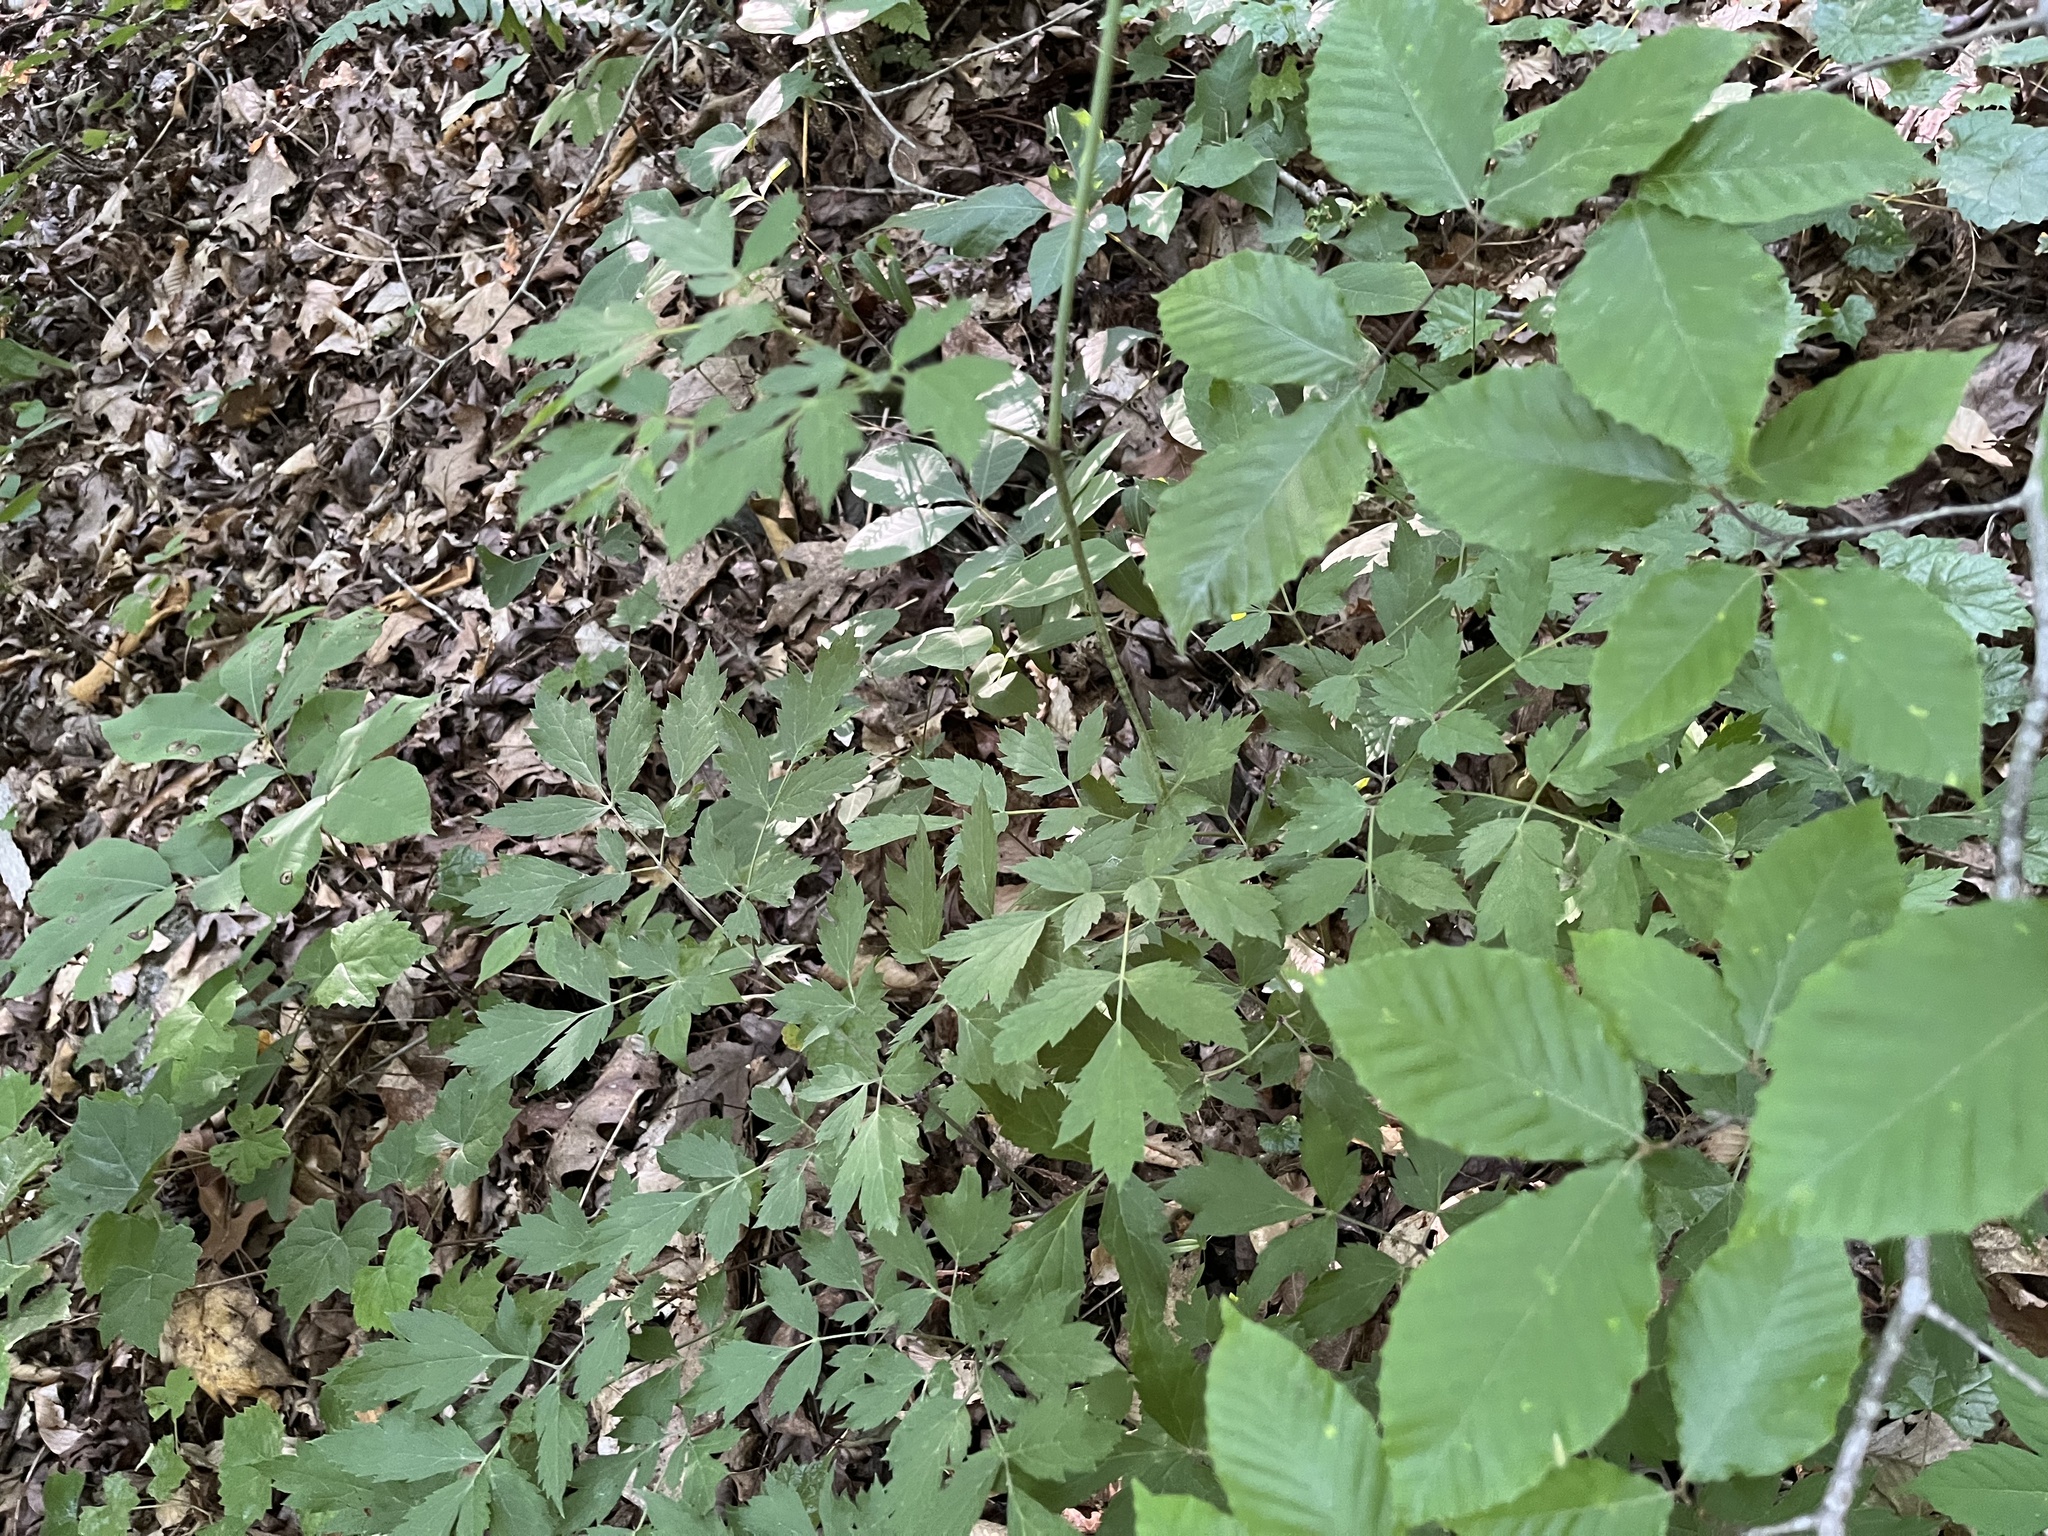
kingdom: Plantae
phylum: Tracheophyta
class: Magnoliopsida
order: Ranunculales
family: Ranunculaceae
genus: Actaea
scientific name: Actaea racemosa
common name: Black cohosh
